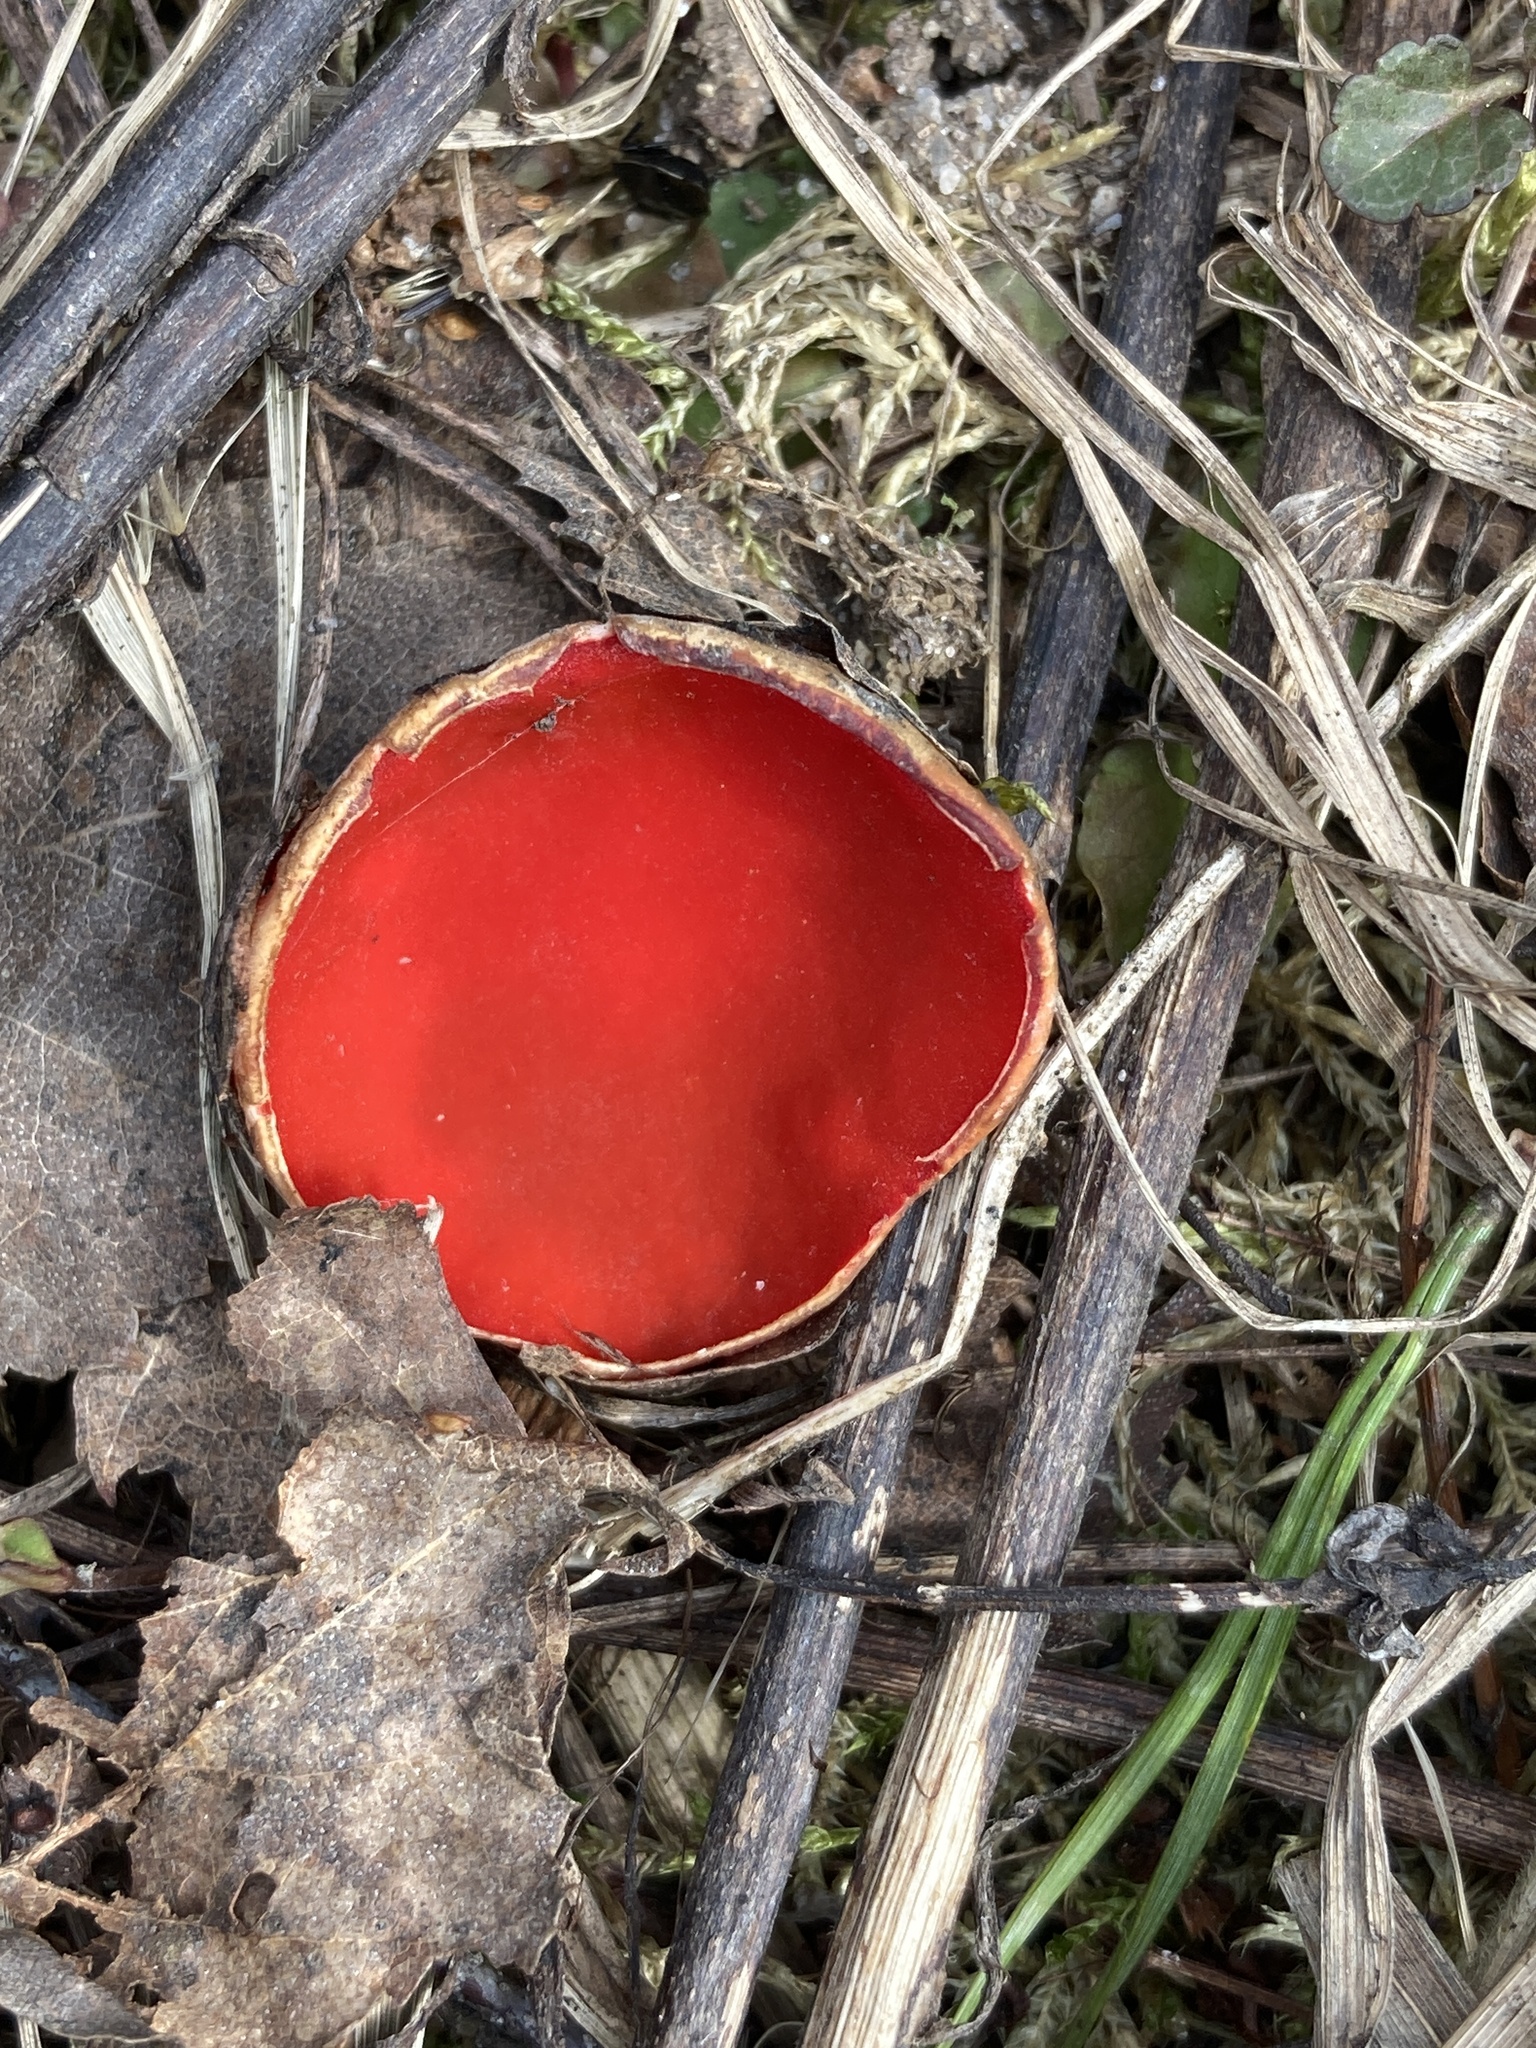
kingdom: Fungi
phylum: Ascomycota
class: Pezizomycetes
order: Pezizales
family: Sarcoscyphaceae
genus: Sarcoscypha
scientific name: Sarcoscypha austriaca
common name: Scarlet elfcup
